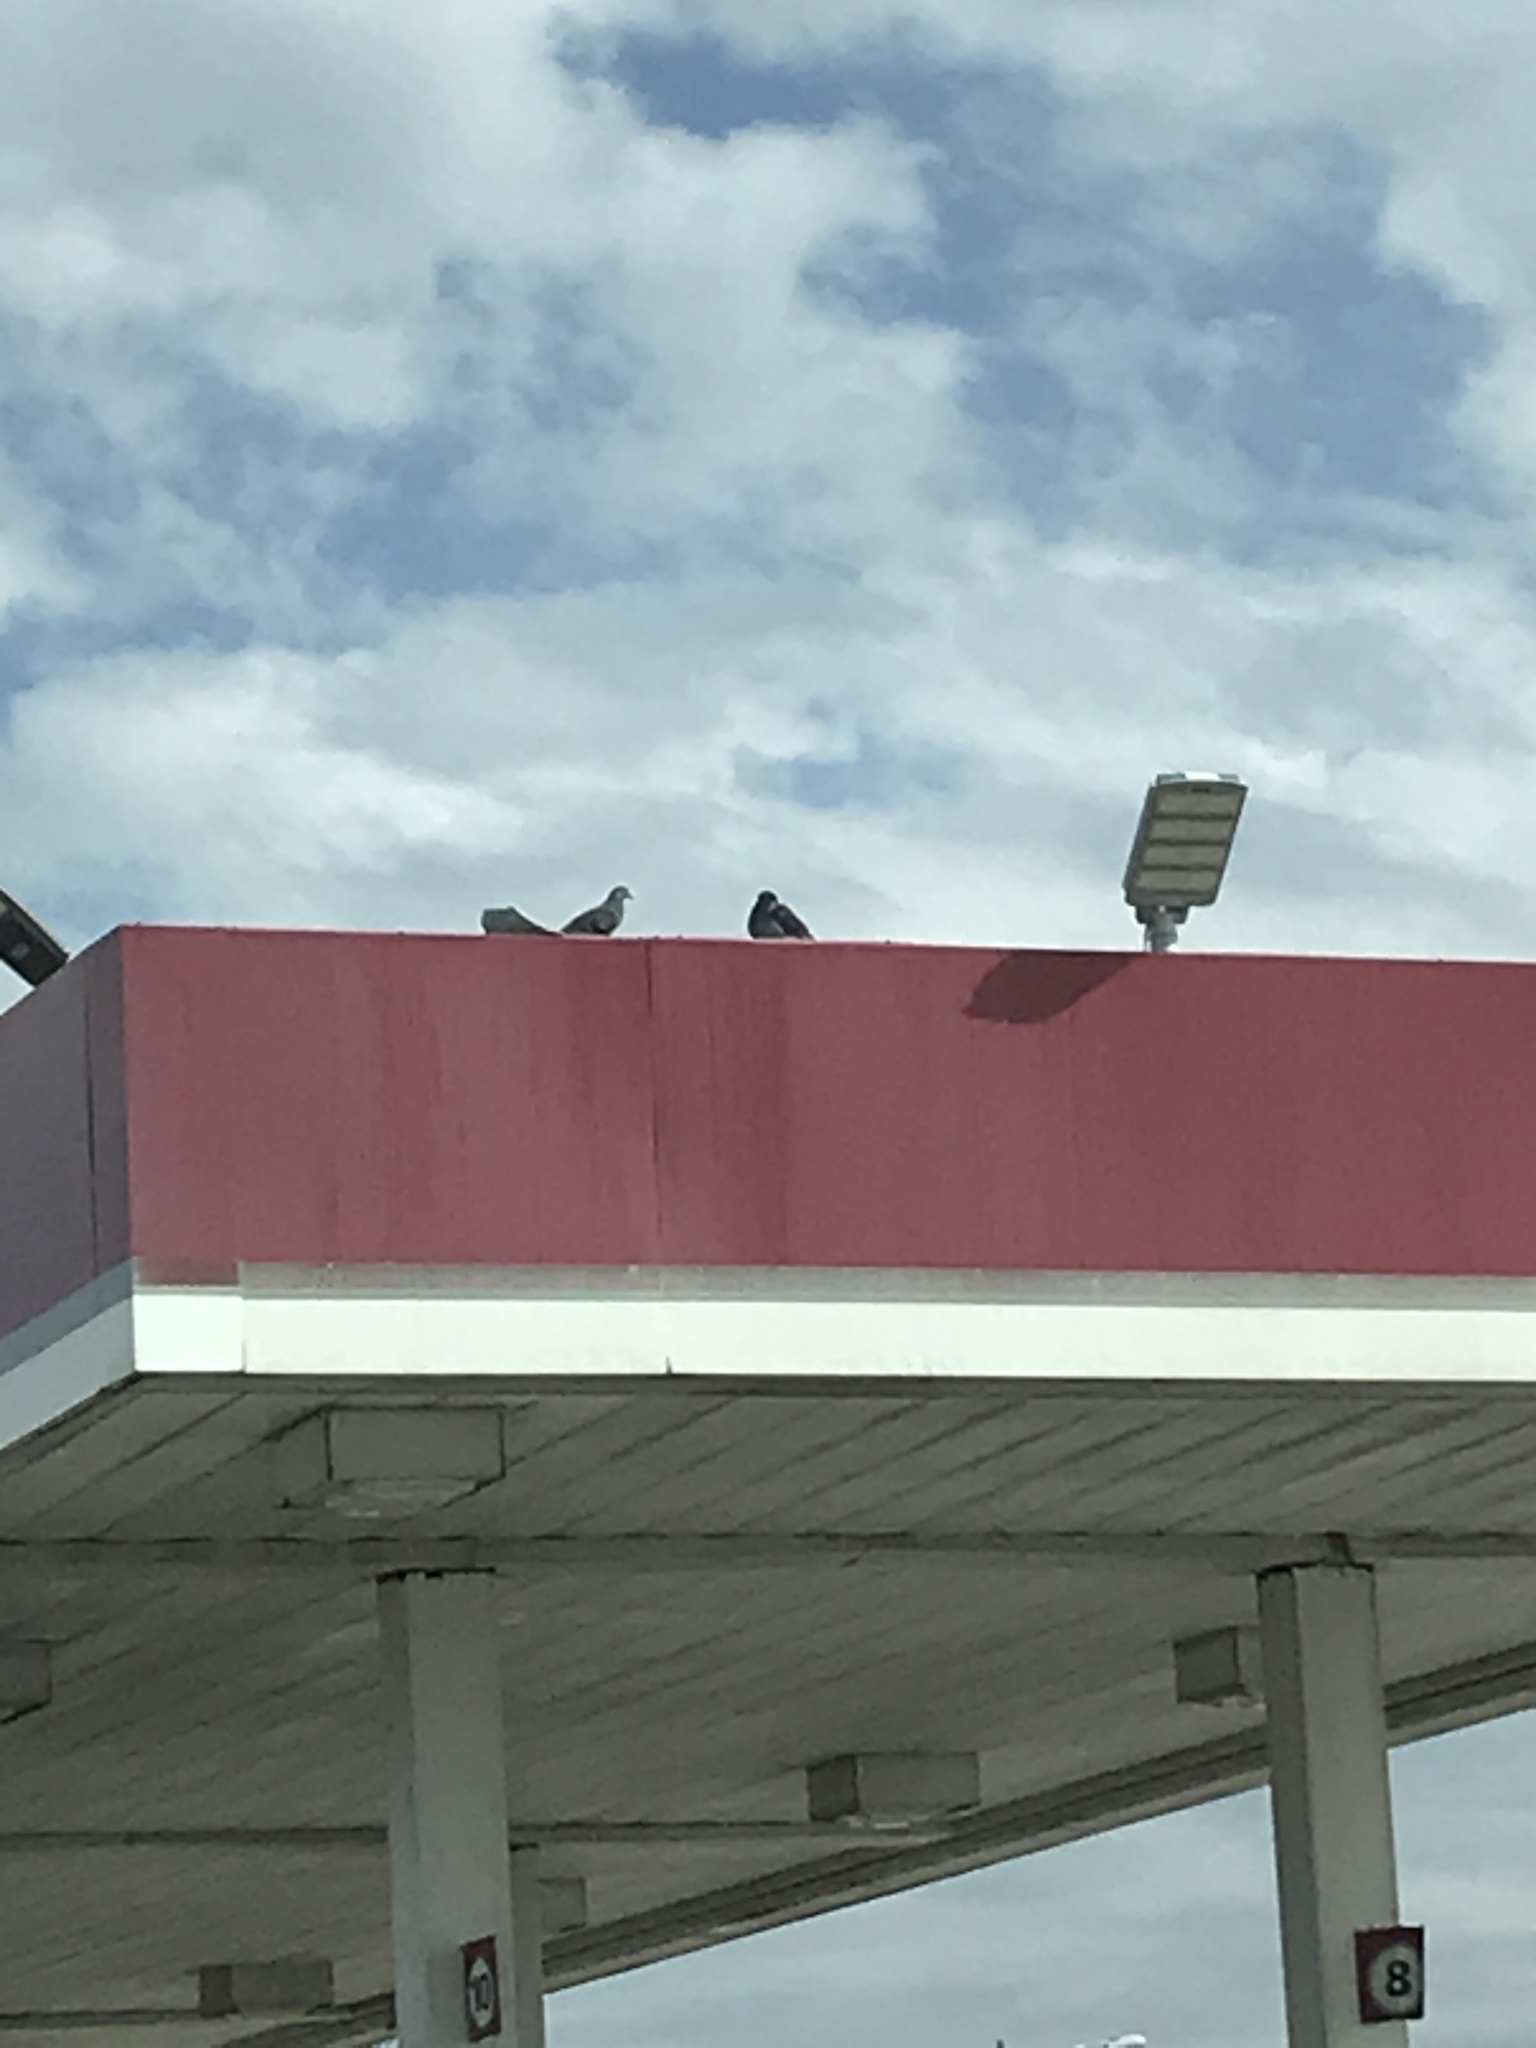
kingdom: Animalia
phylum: Chordata
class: Aves
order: Columbiformes
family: Columbidae
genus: Columba
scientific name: Columba livia
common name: Rock pigeon
